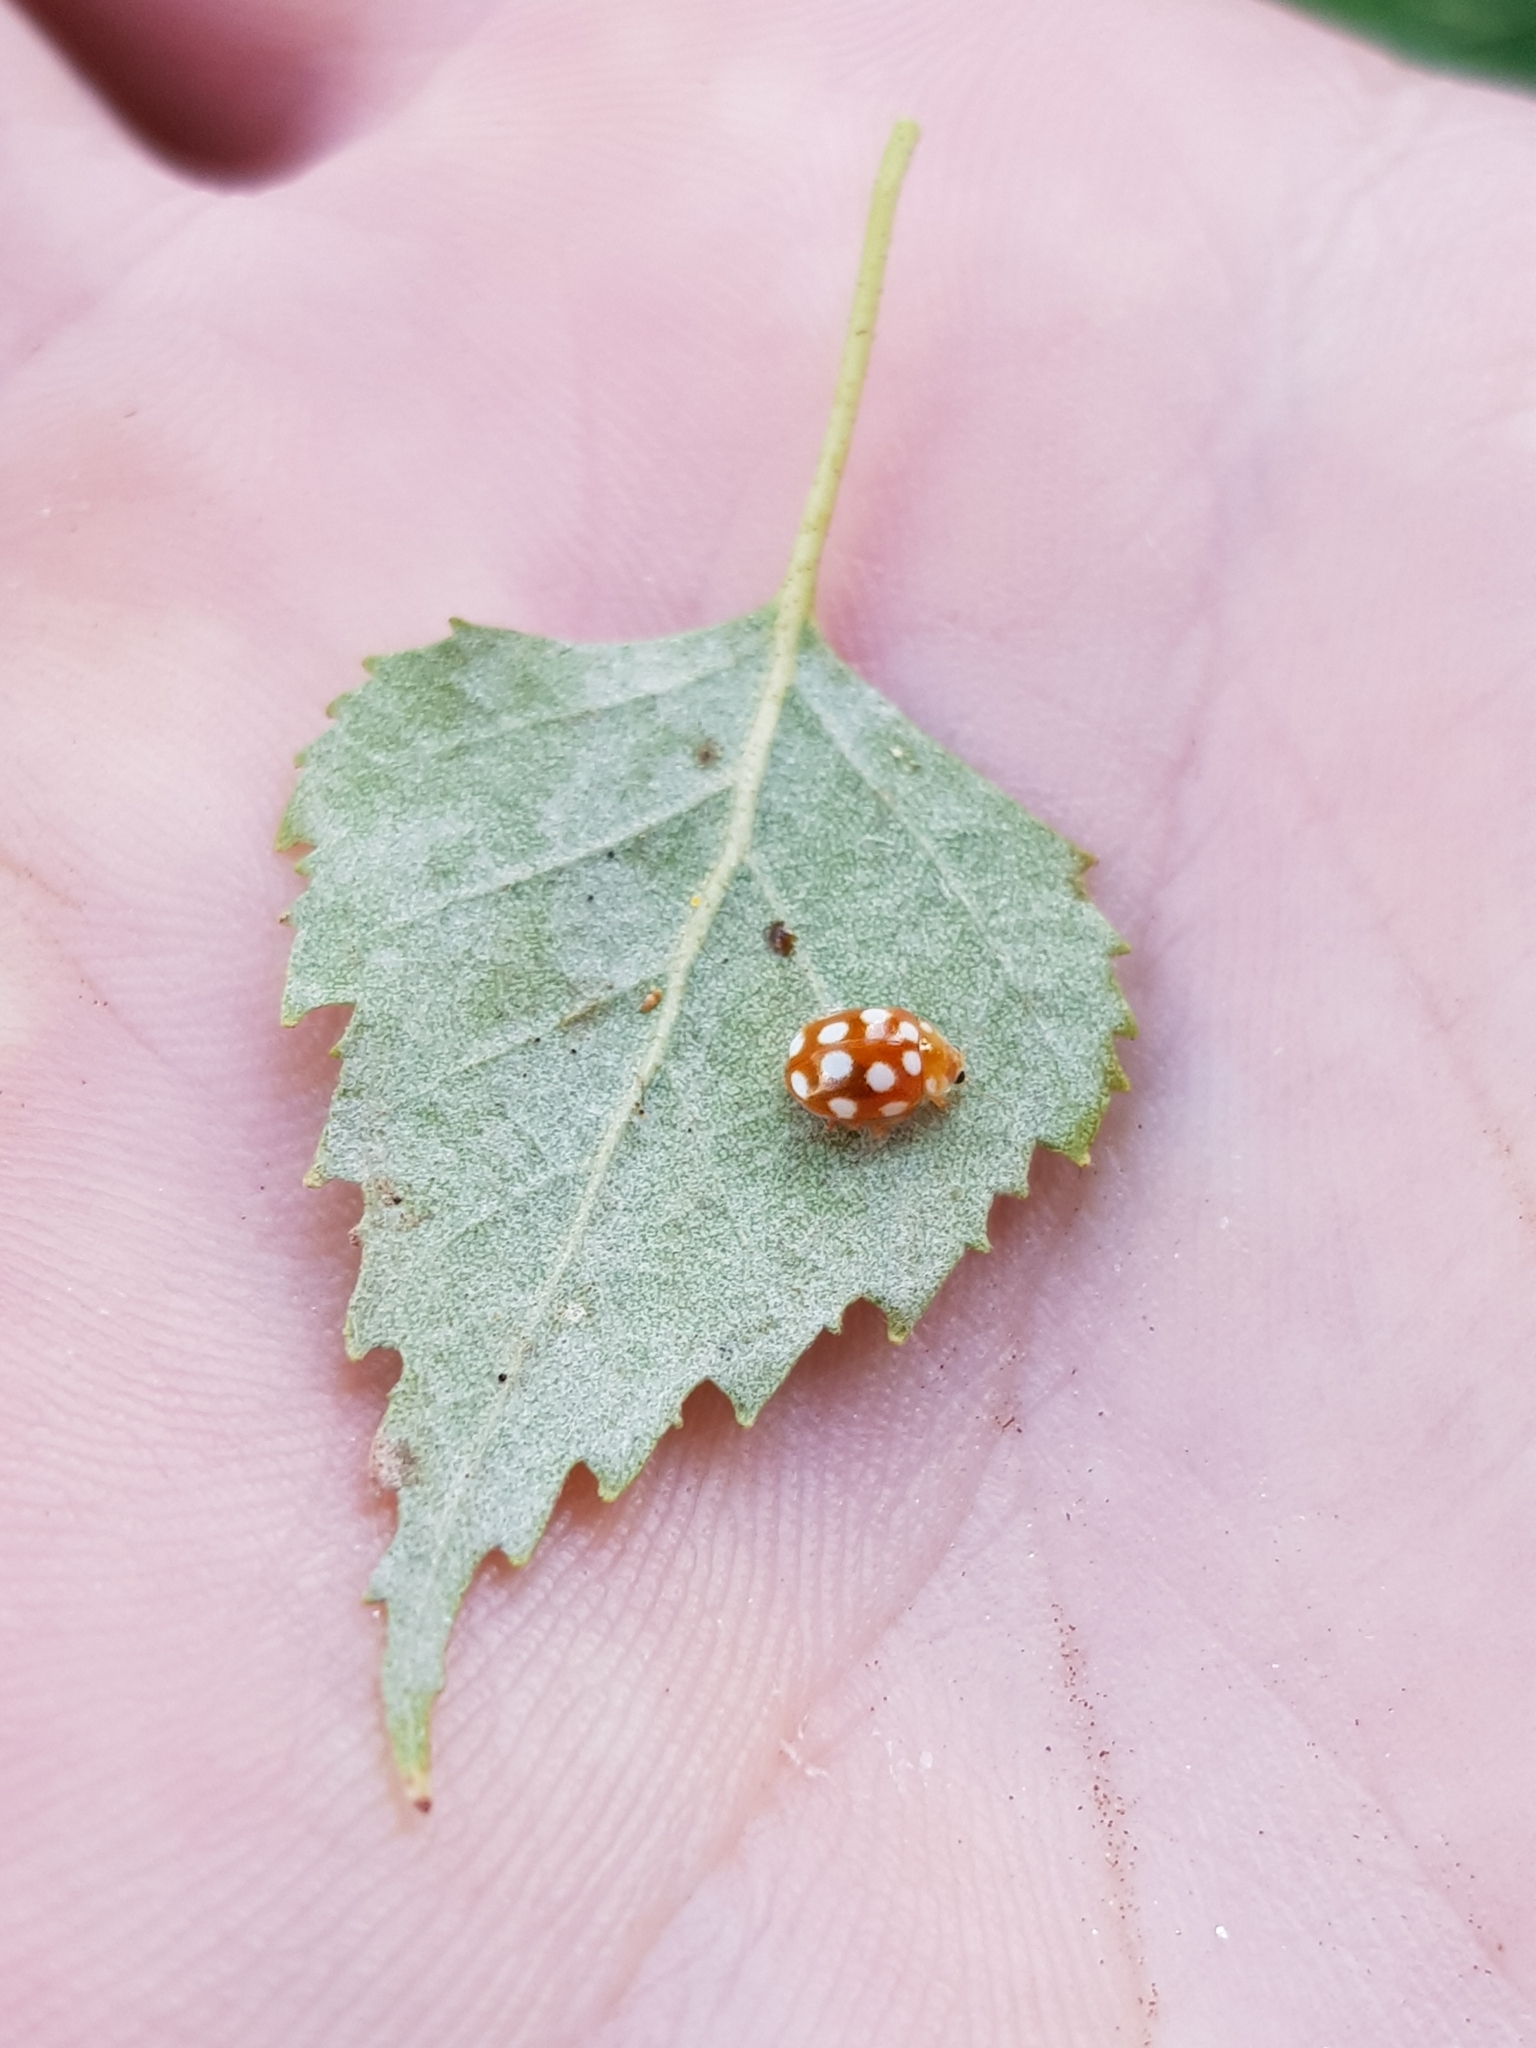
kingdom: Animalia
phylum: Arthropoda
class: Insecta
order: Coleoptera
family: Coccinellidae
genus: Vibidia
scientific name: Vibidia duodecimguttata
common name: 12-spot ladybird
